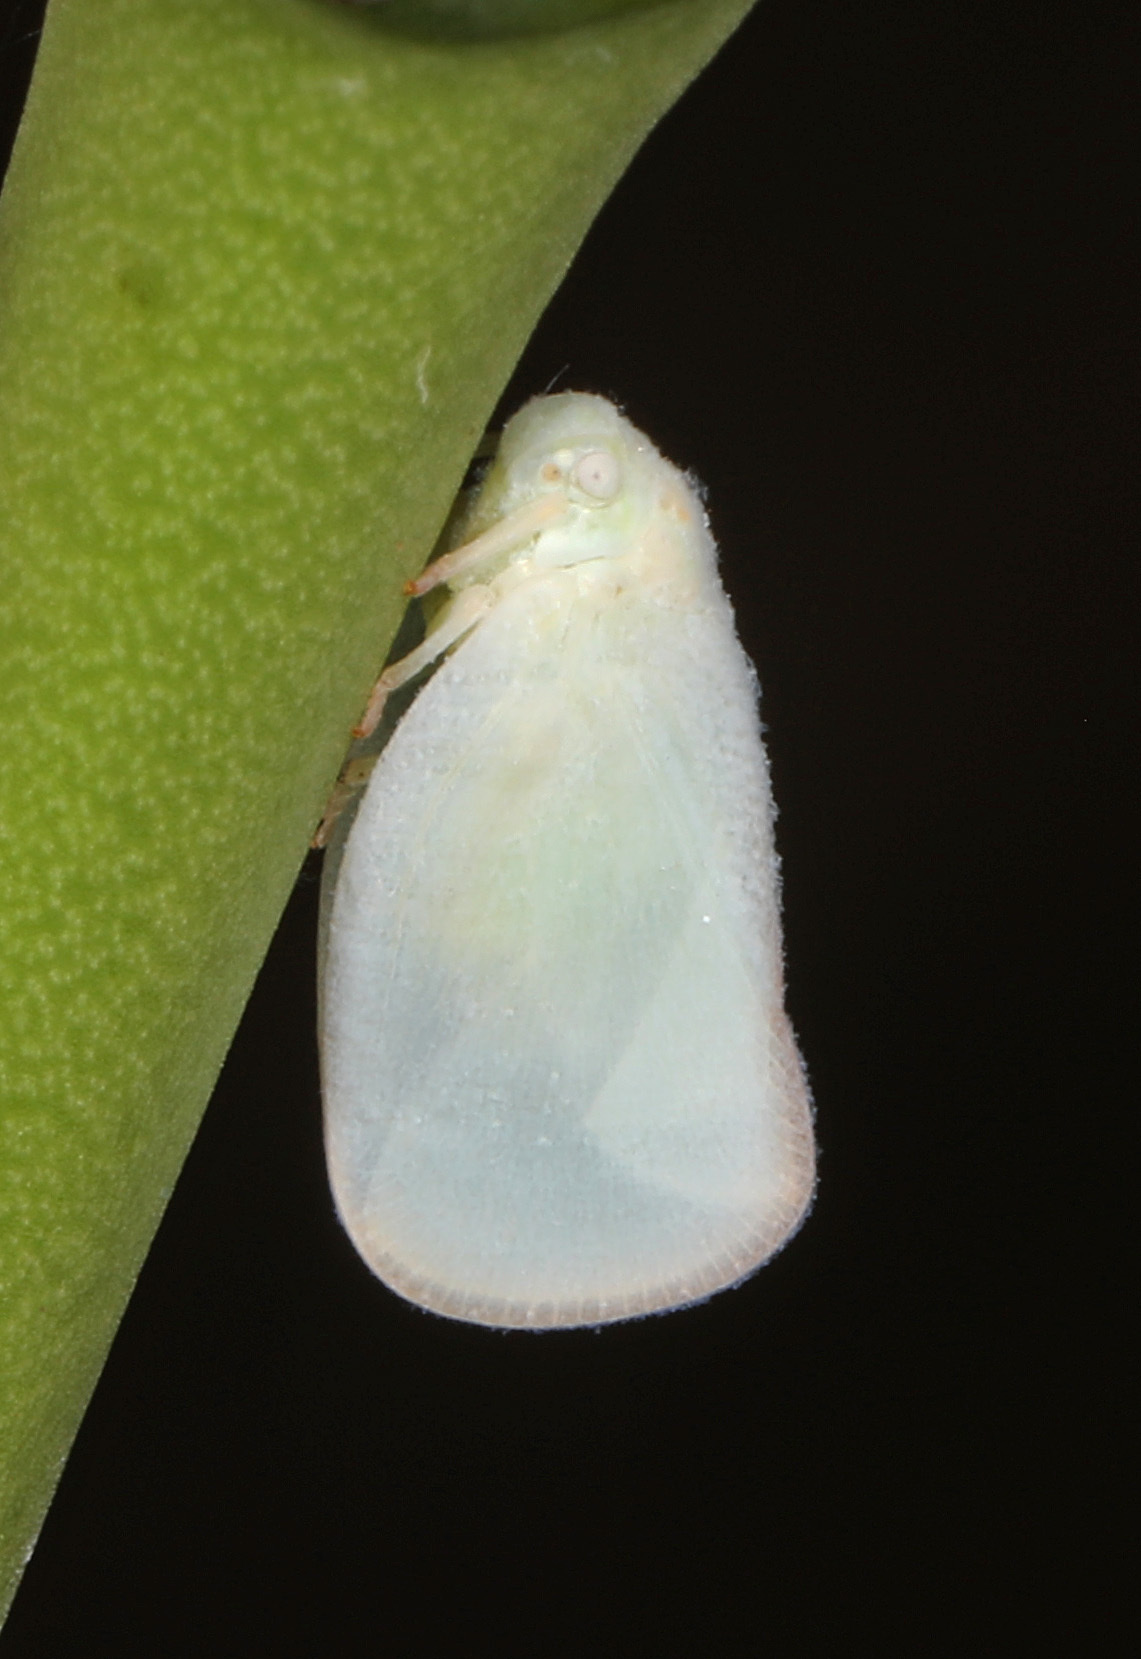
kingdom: Animalia
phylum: Arthropoda
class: Insecta
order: Hemiptera
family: Flatidae
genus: Ormenoides
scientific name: Ormenoides venusta
